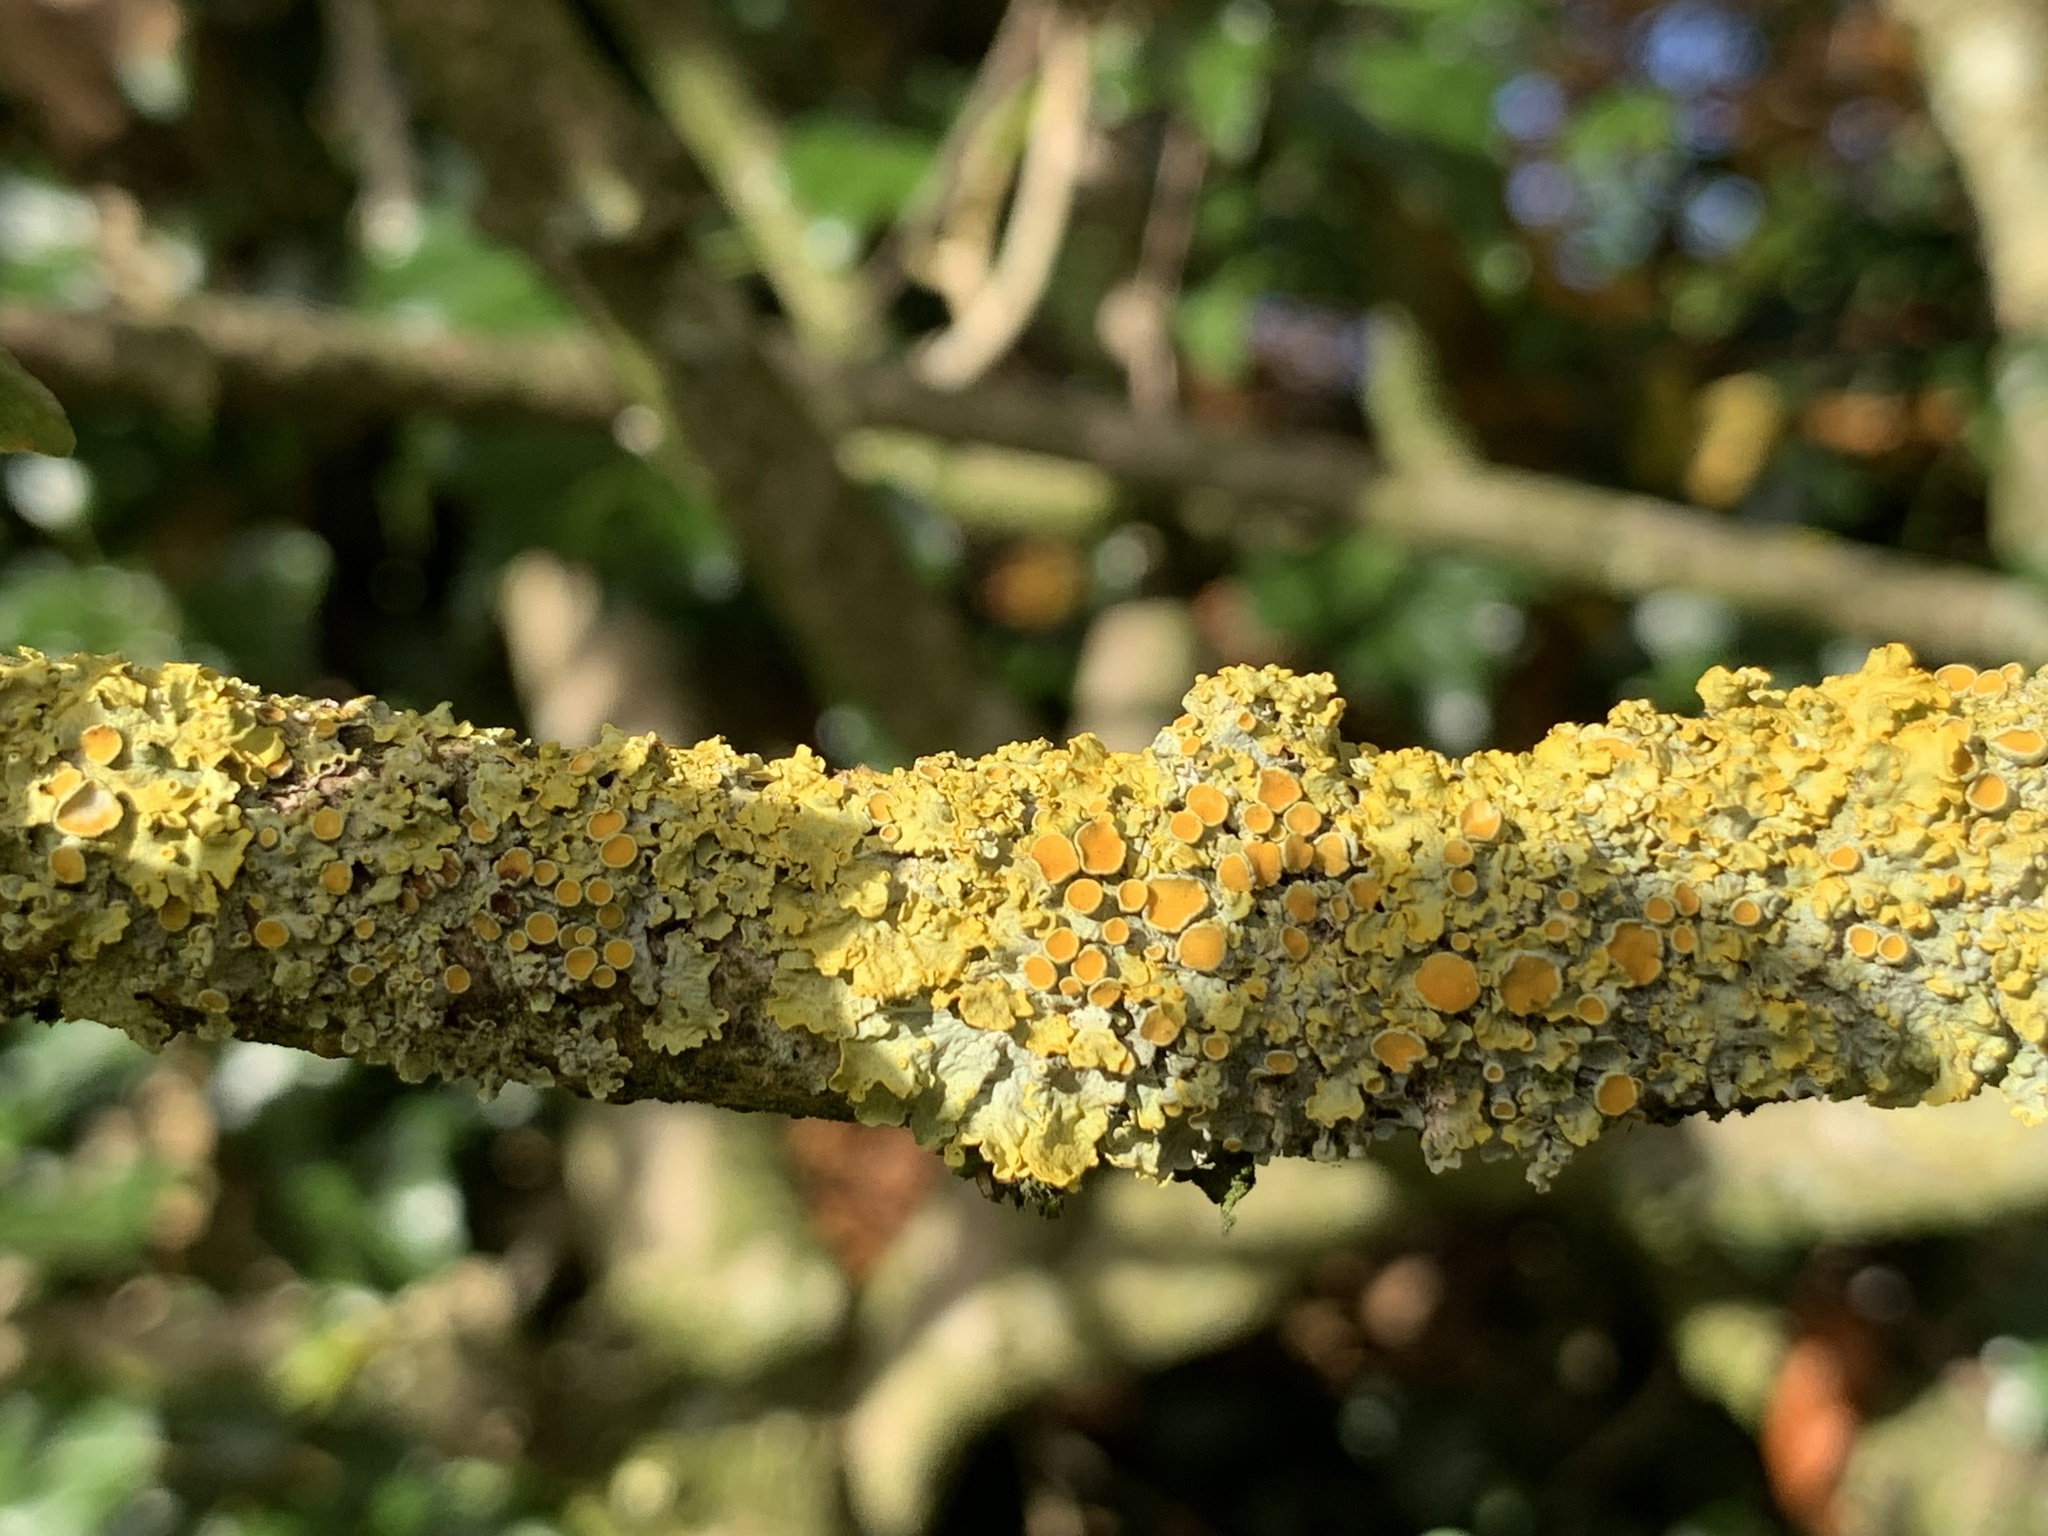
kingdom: Fungi
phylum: Ascomycota
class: Lecanoromycetes
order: Teloschistales
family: Teloschistaceae
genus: Xanthoria
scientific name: Xanthoria parietina
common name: Common orange lichen
